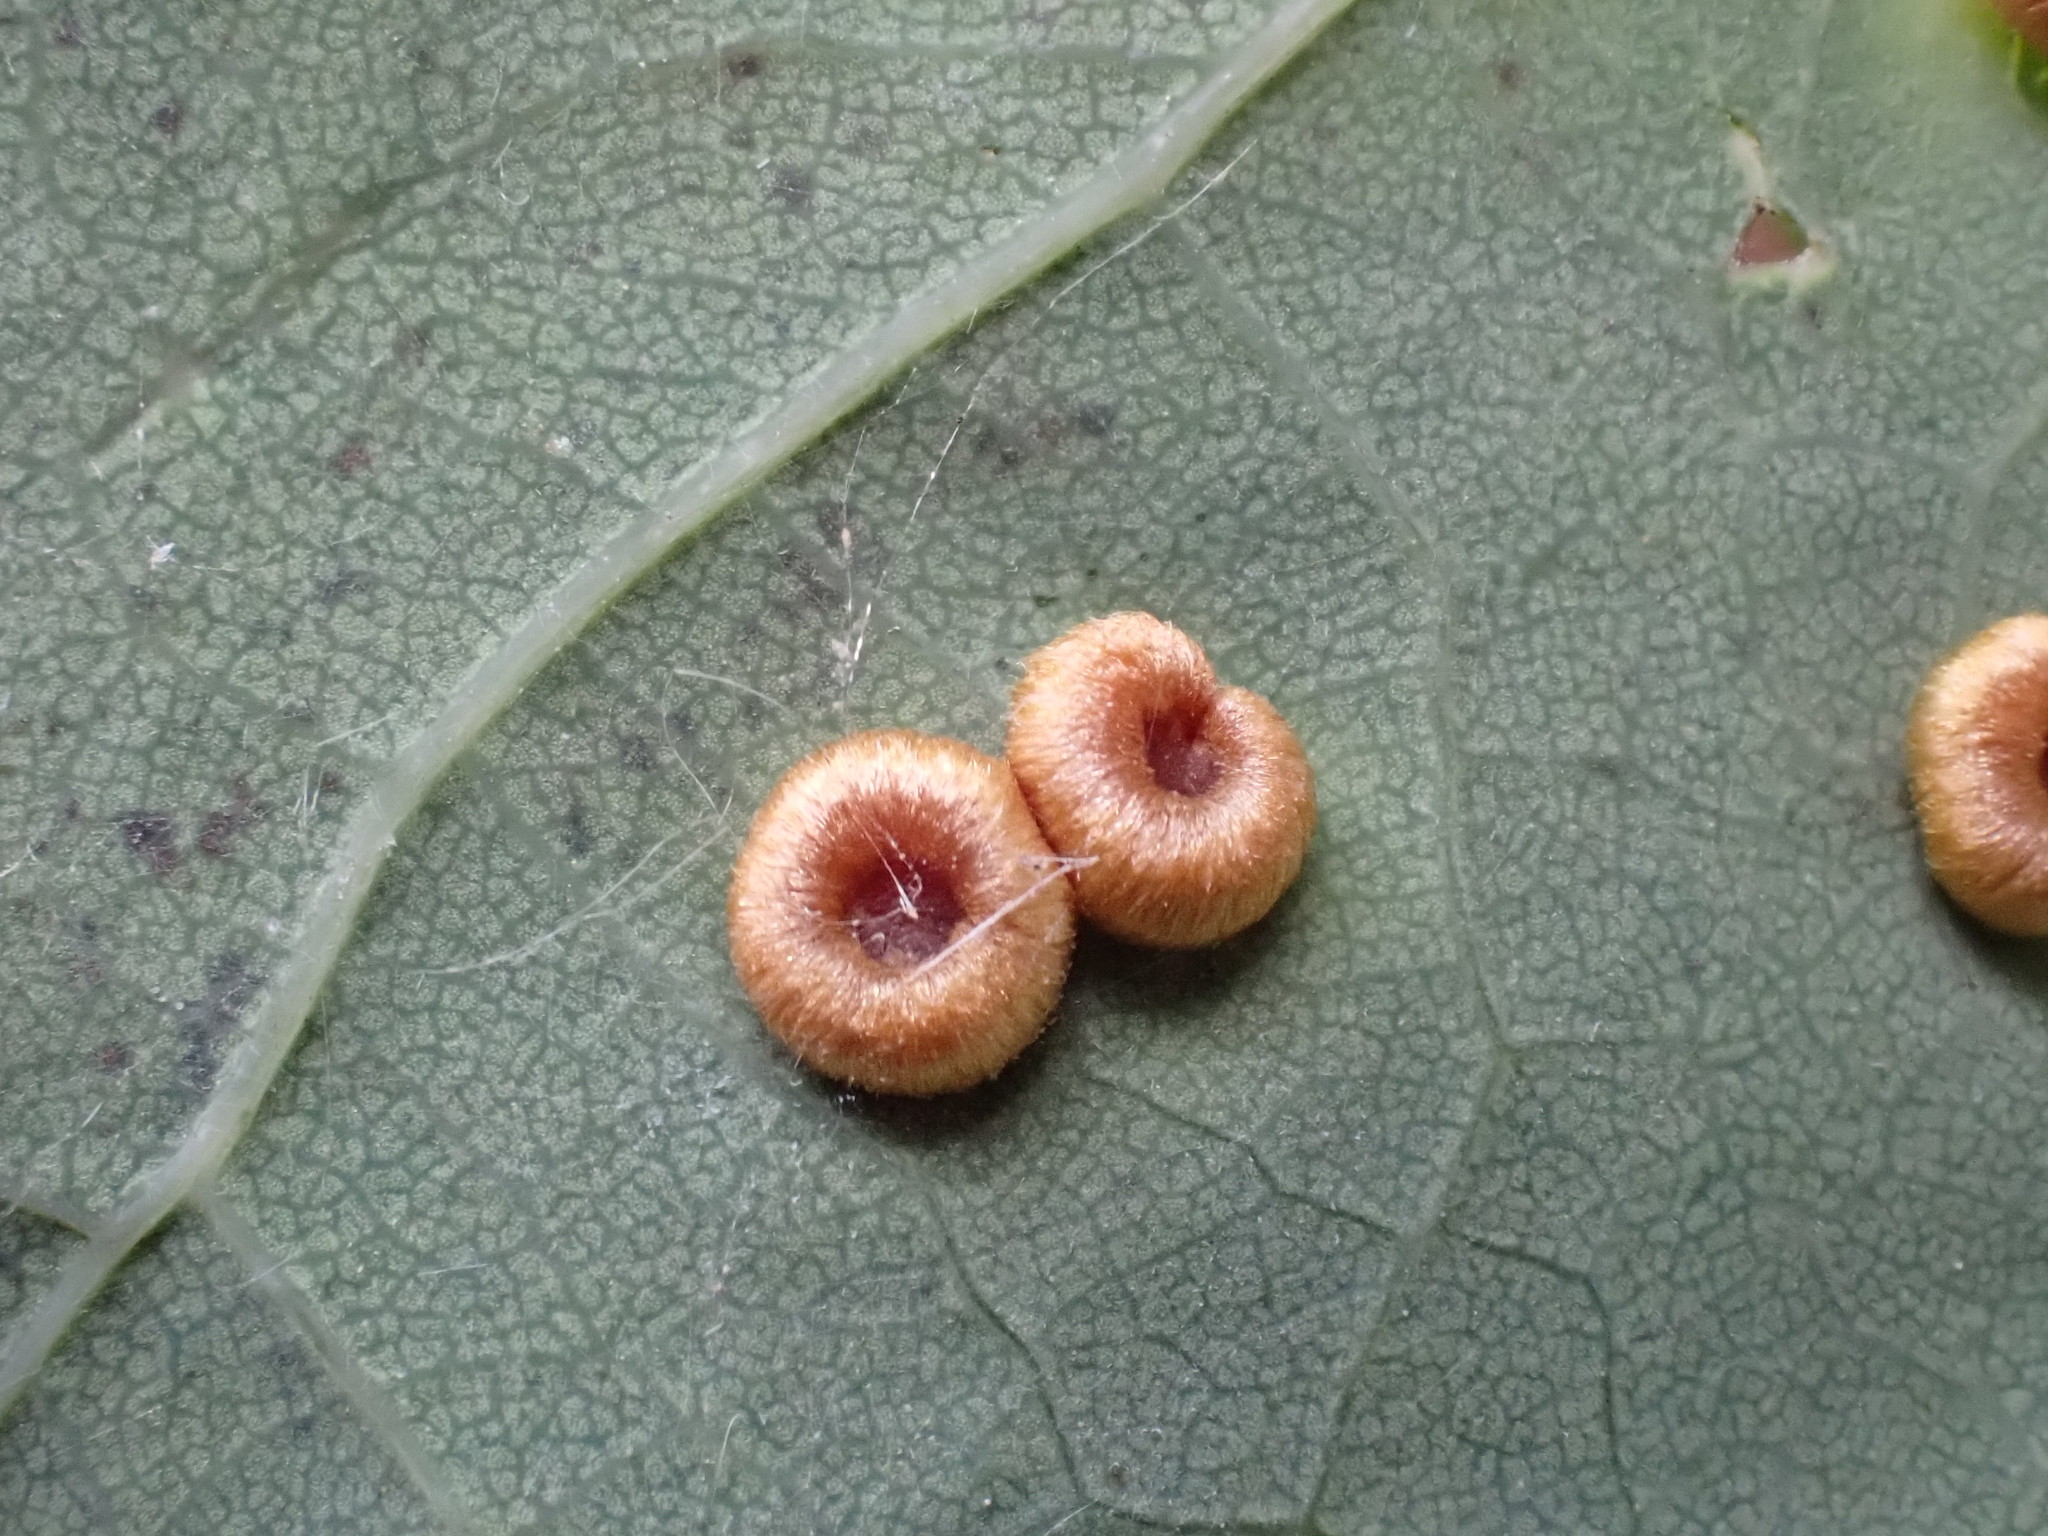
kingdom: Animalia
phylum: Arthropoda
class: Insecta
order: Hymenoptera
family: Cynipidae
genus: Neuroterus
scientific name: Neuroterus numismalis
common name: Silk-button spangle gall
